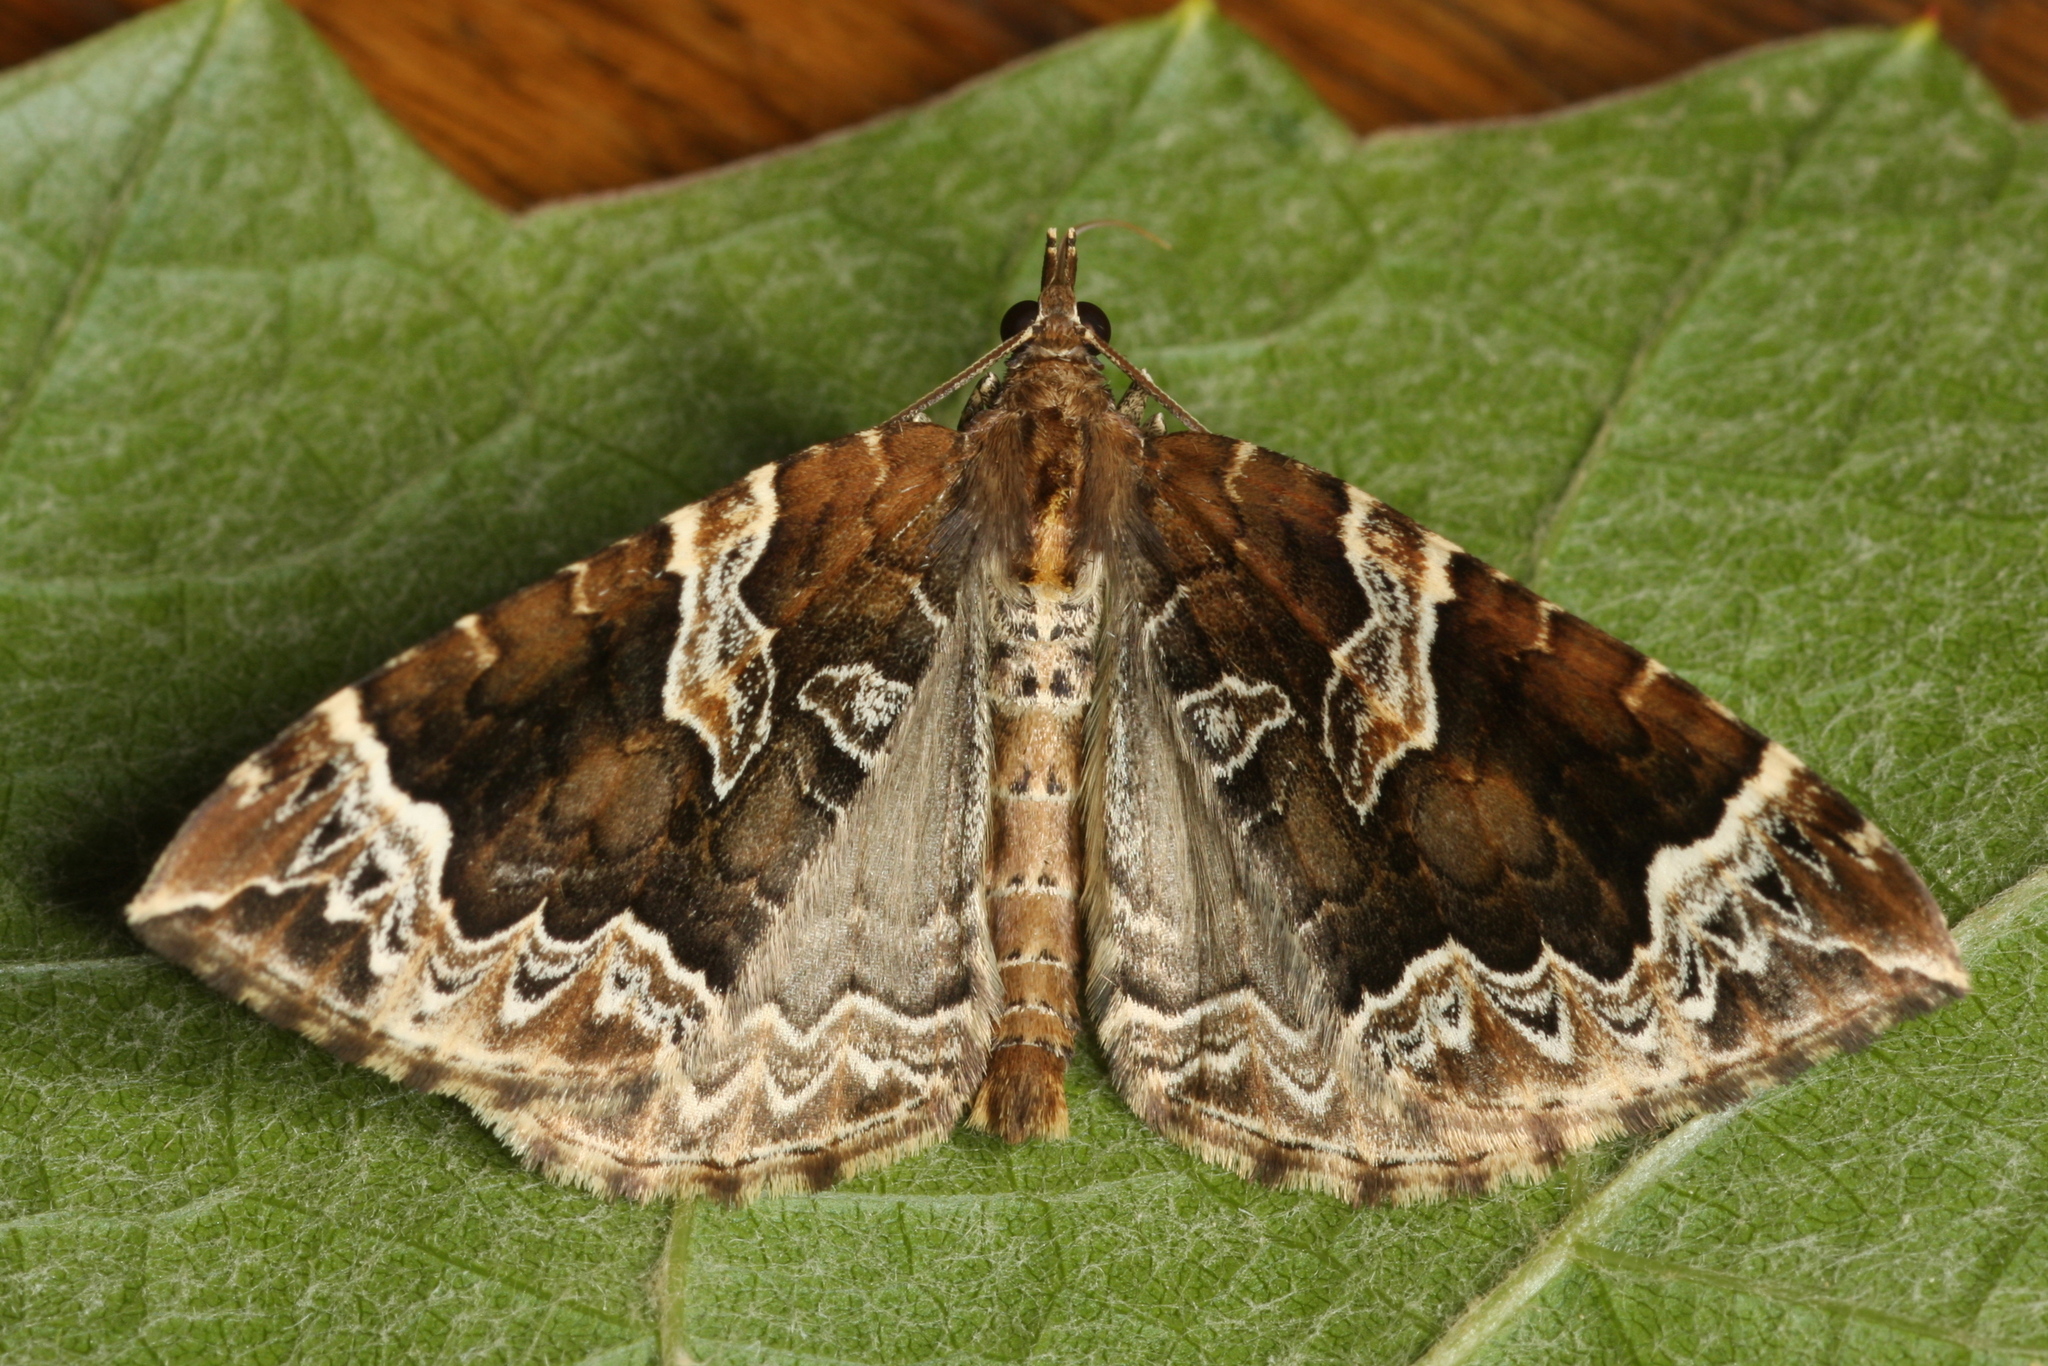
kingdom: Animalia
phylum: Arthropoda
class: Insecta
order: Lepidoptera
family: Geometridae
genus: Eulithis
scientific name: Eulithis prunata
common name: Phoenix
